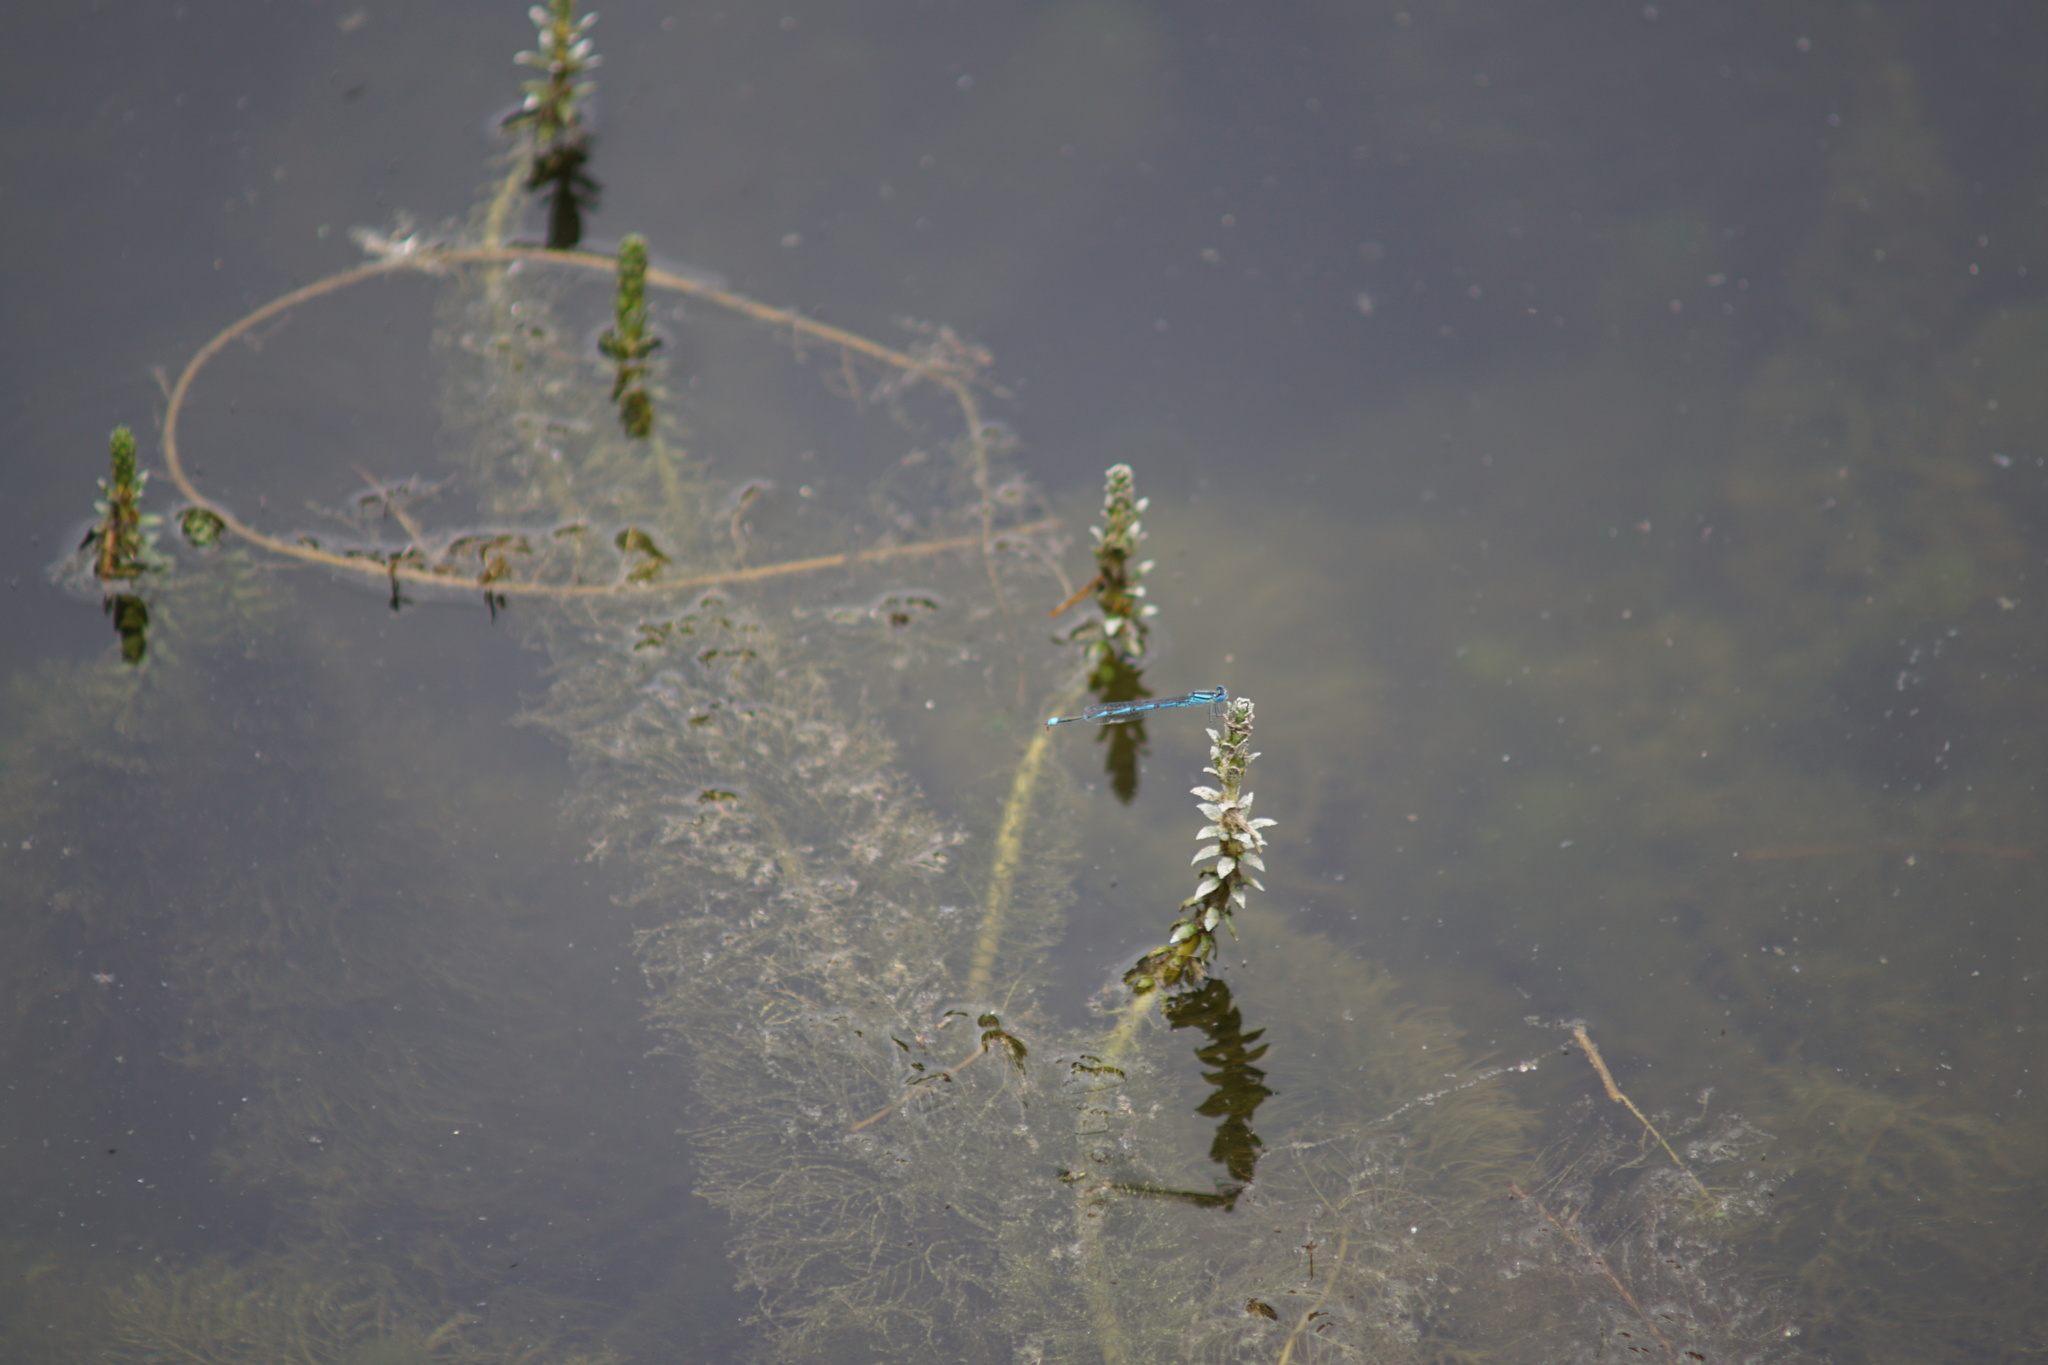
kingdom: Animalia
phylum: Arthropoda
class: Insecta
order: Odonata
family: Coenagrionidae
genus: Erythromma
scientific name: Erythromma lindenii
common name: Blue-eye
